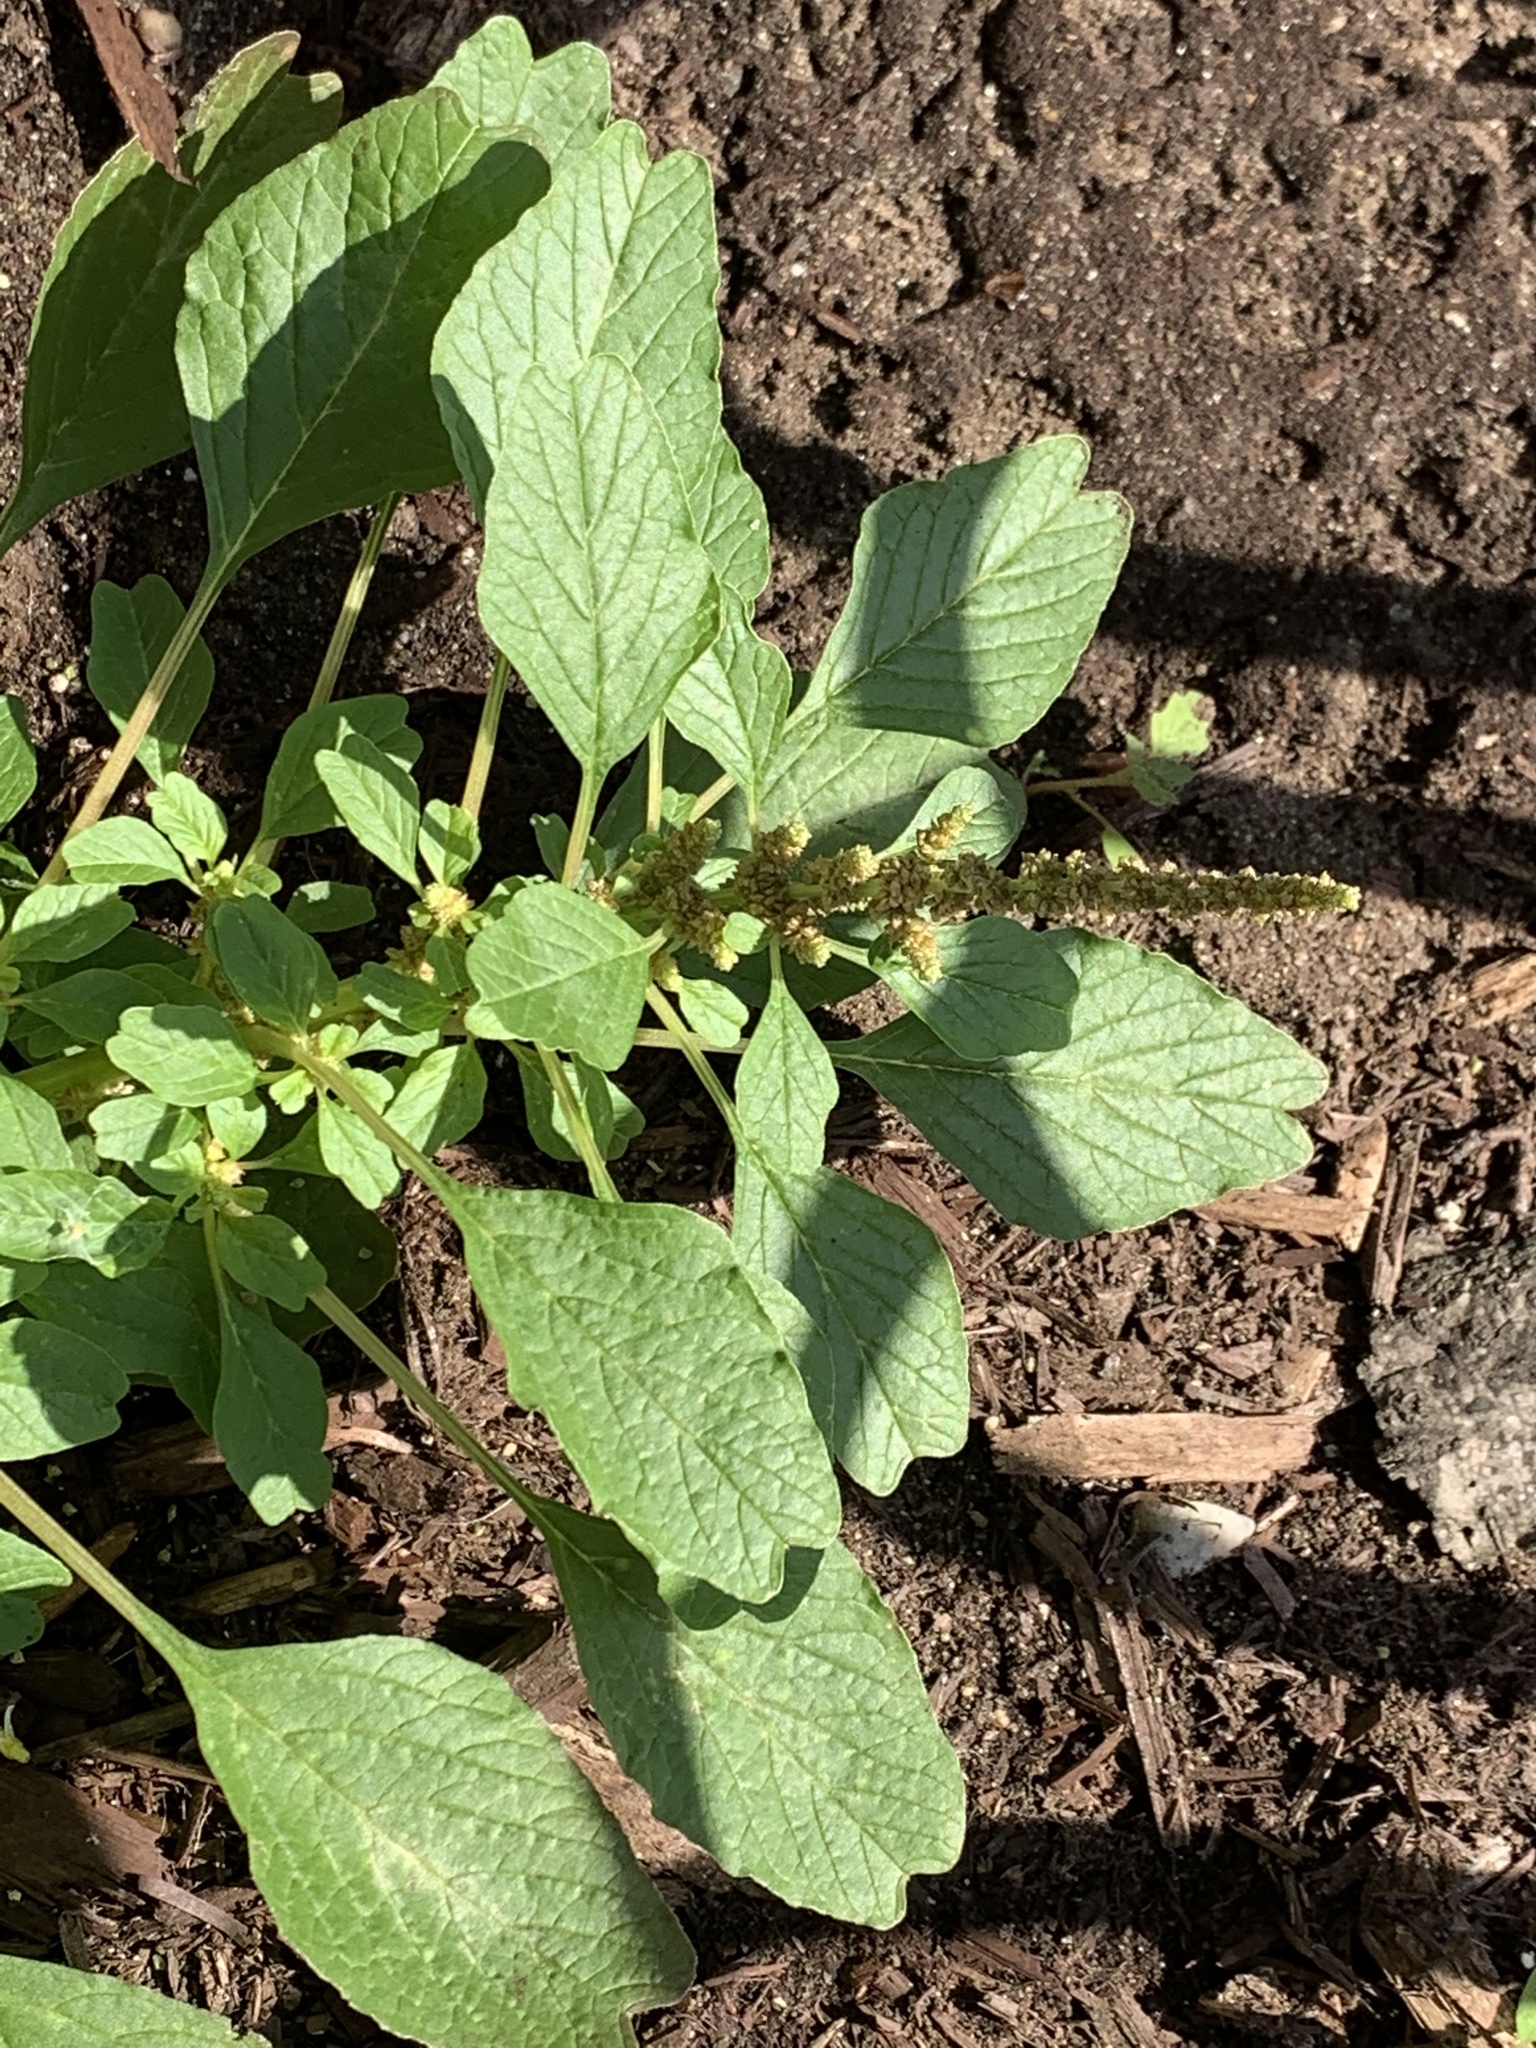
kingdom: Plantae
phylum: Tracheophyta
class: Magnoliopsida
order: Caryophyllales
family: Amaranthaceae
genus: Amaranthus
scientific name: Amaranthus blitum
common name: Purple amaranth
